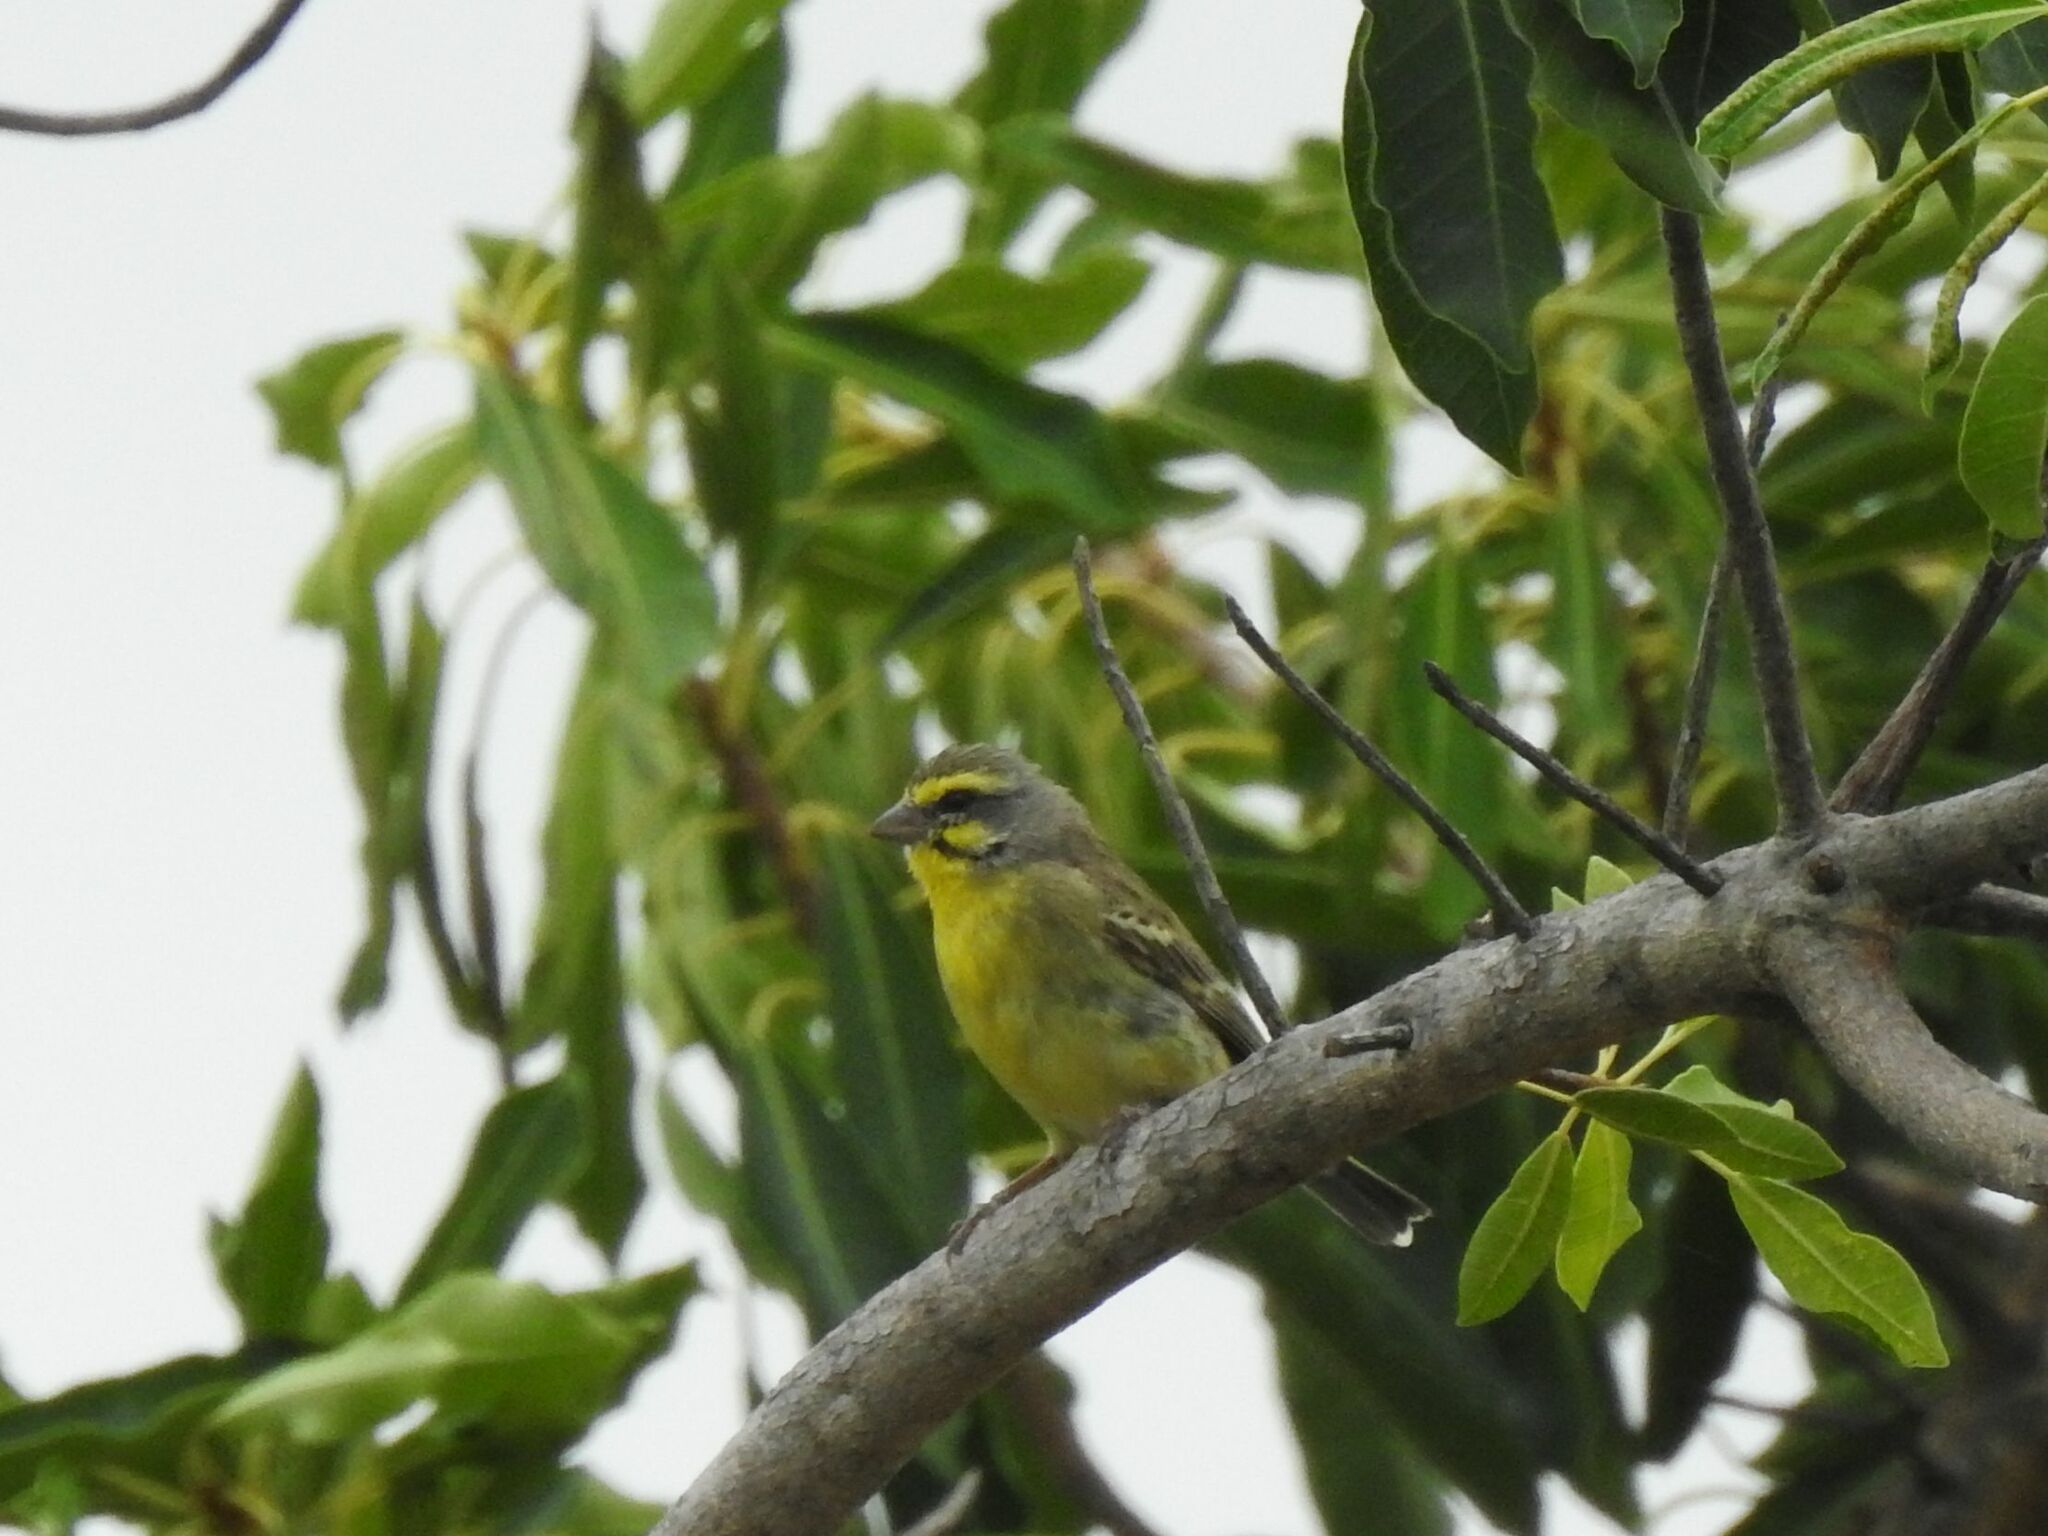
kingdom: Animalia
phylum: Chordata
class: Aves
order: Passeriformes
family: Fringillidae
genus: Crithagra
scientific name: Crithagra mozambica
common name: Yellow-fronted canary
